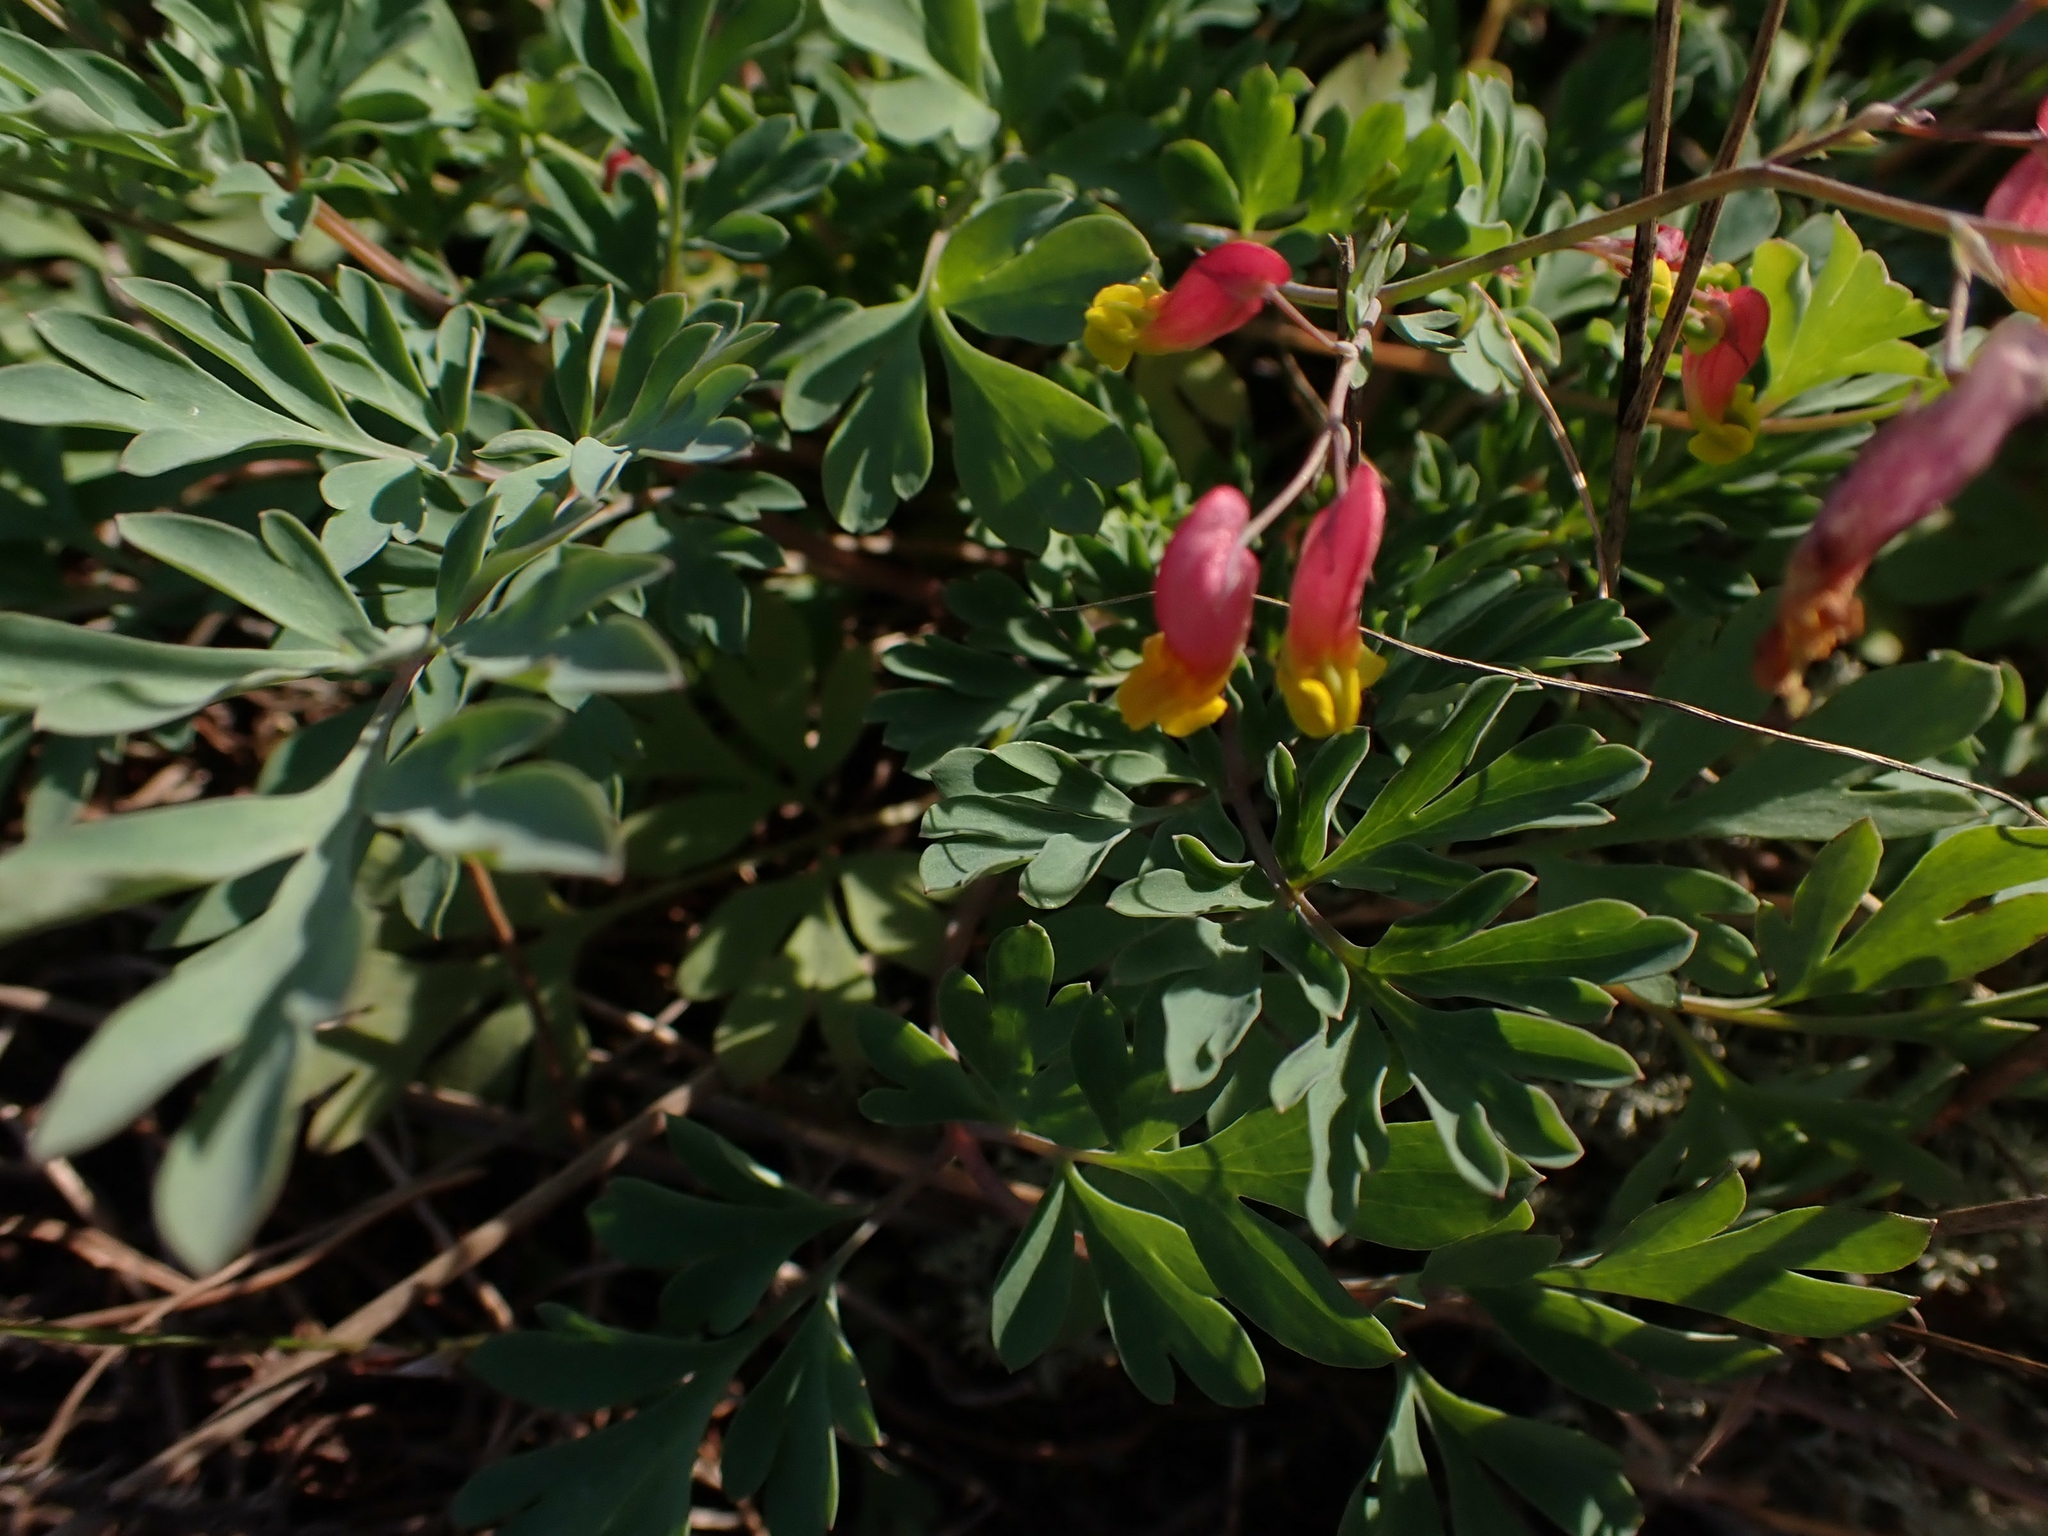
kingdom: Plantae
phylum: Tracheophyta
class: Magnoliopsida
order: Ranunculales
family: Papaveraceae
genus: Capnoides
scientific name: Capnoides sempervirens
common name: Rock harlequin
